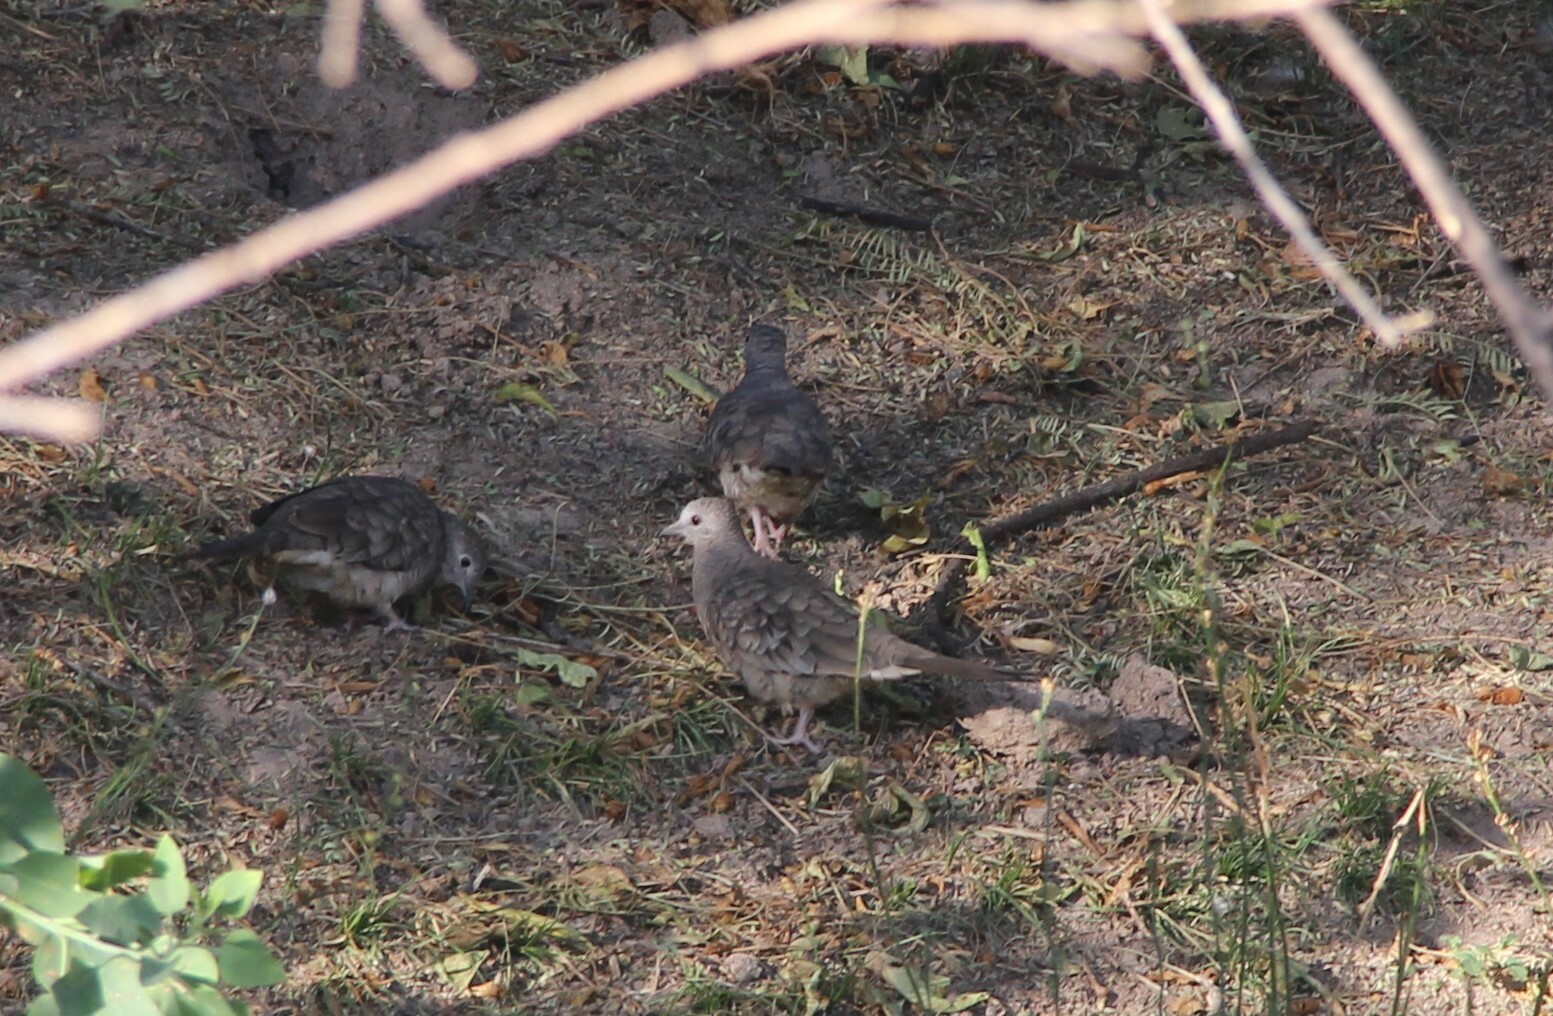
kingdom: Animalia
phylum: Chordata
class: Aves
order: Columbiformes
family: Columbidae
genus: Columbina
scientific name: Columbina inca
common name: Inca dove
